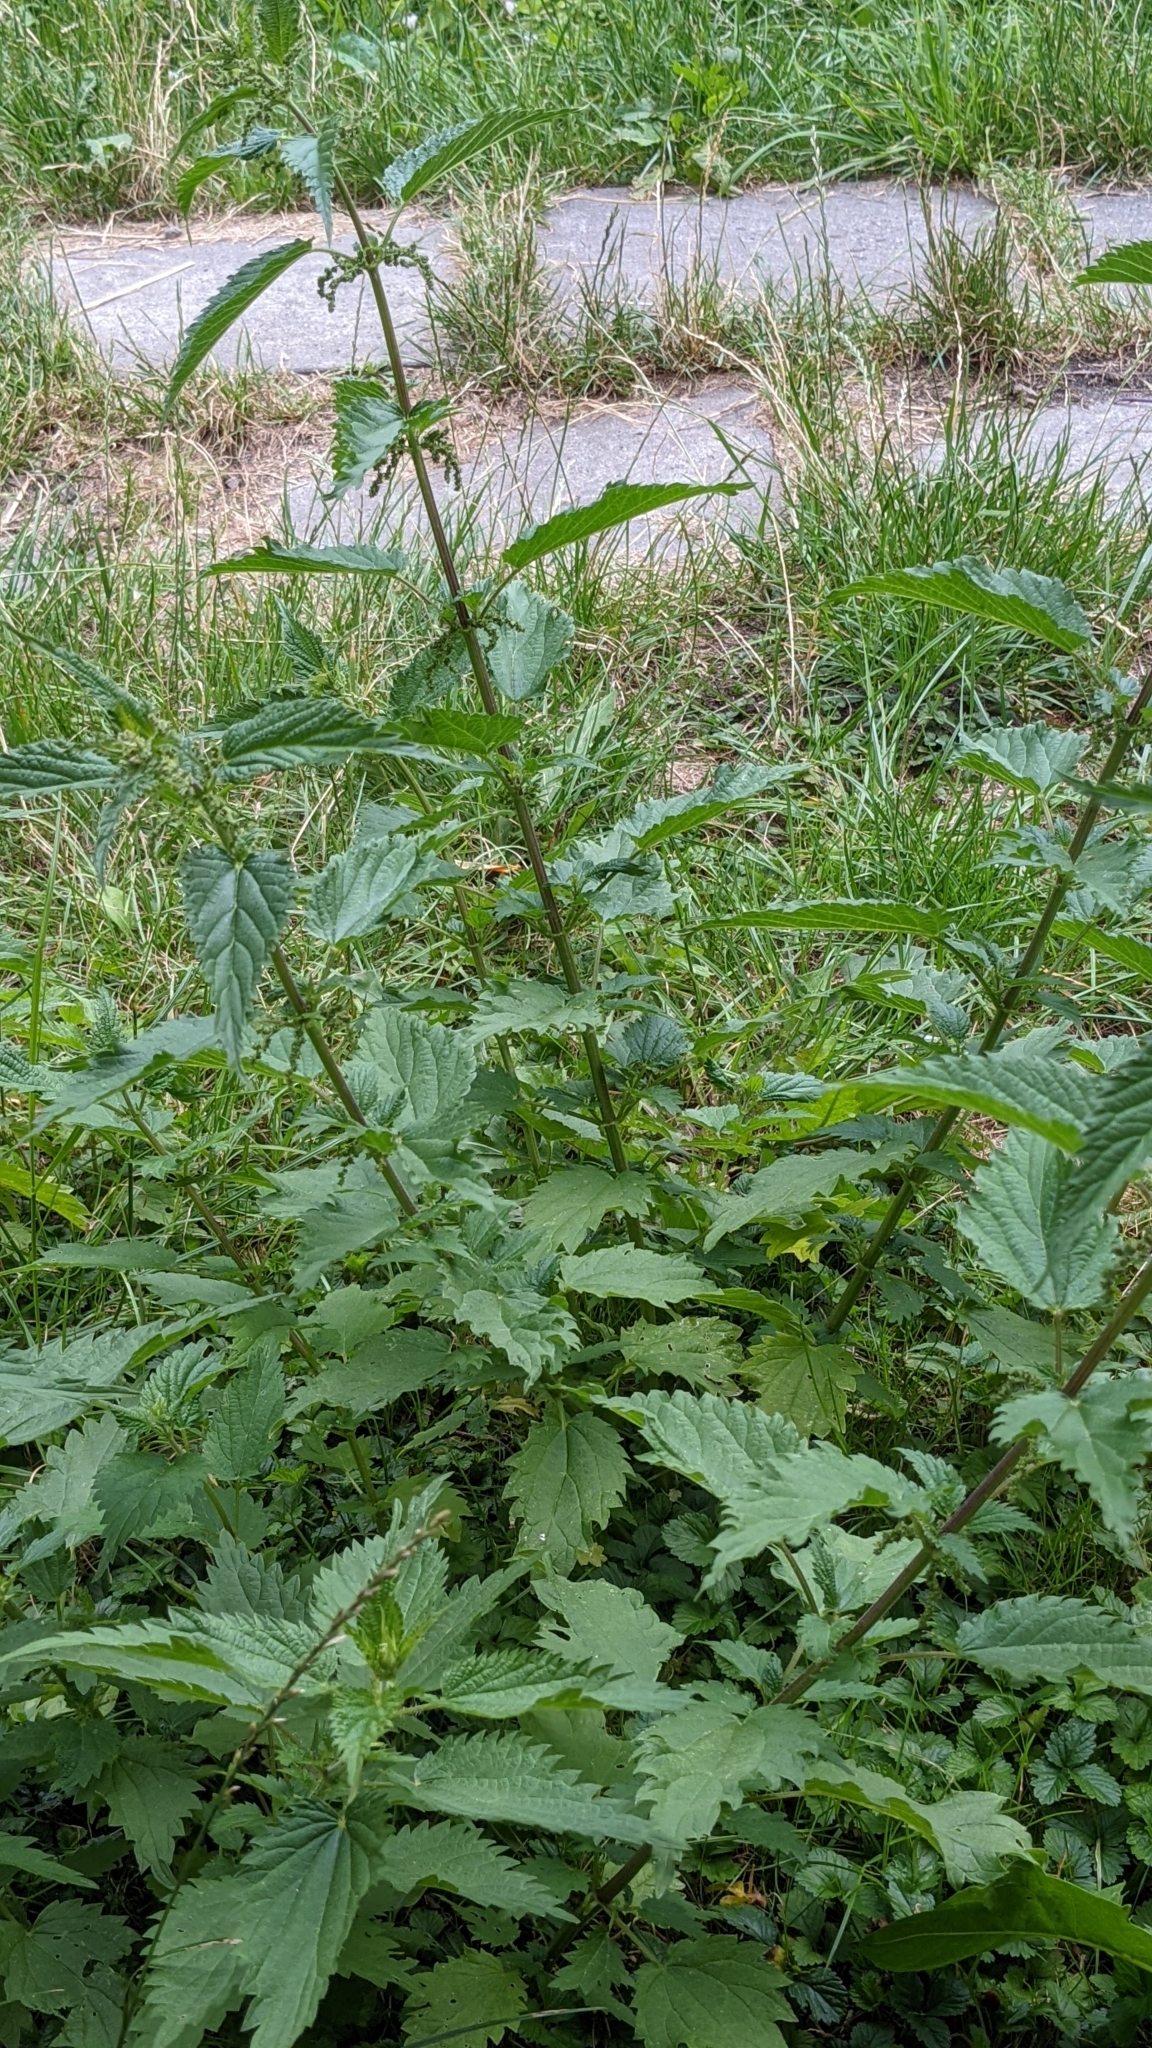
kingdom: Plantae
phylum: Tracheophyta
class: Magnoliopsida
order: Rosales
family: Urticaceae
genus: Urtica
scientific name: Urtica dioica
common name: Common nettle
